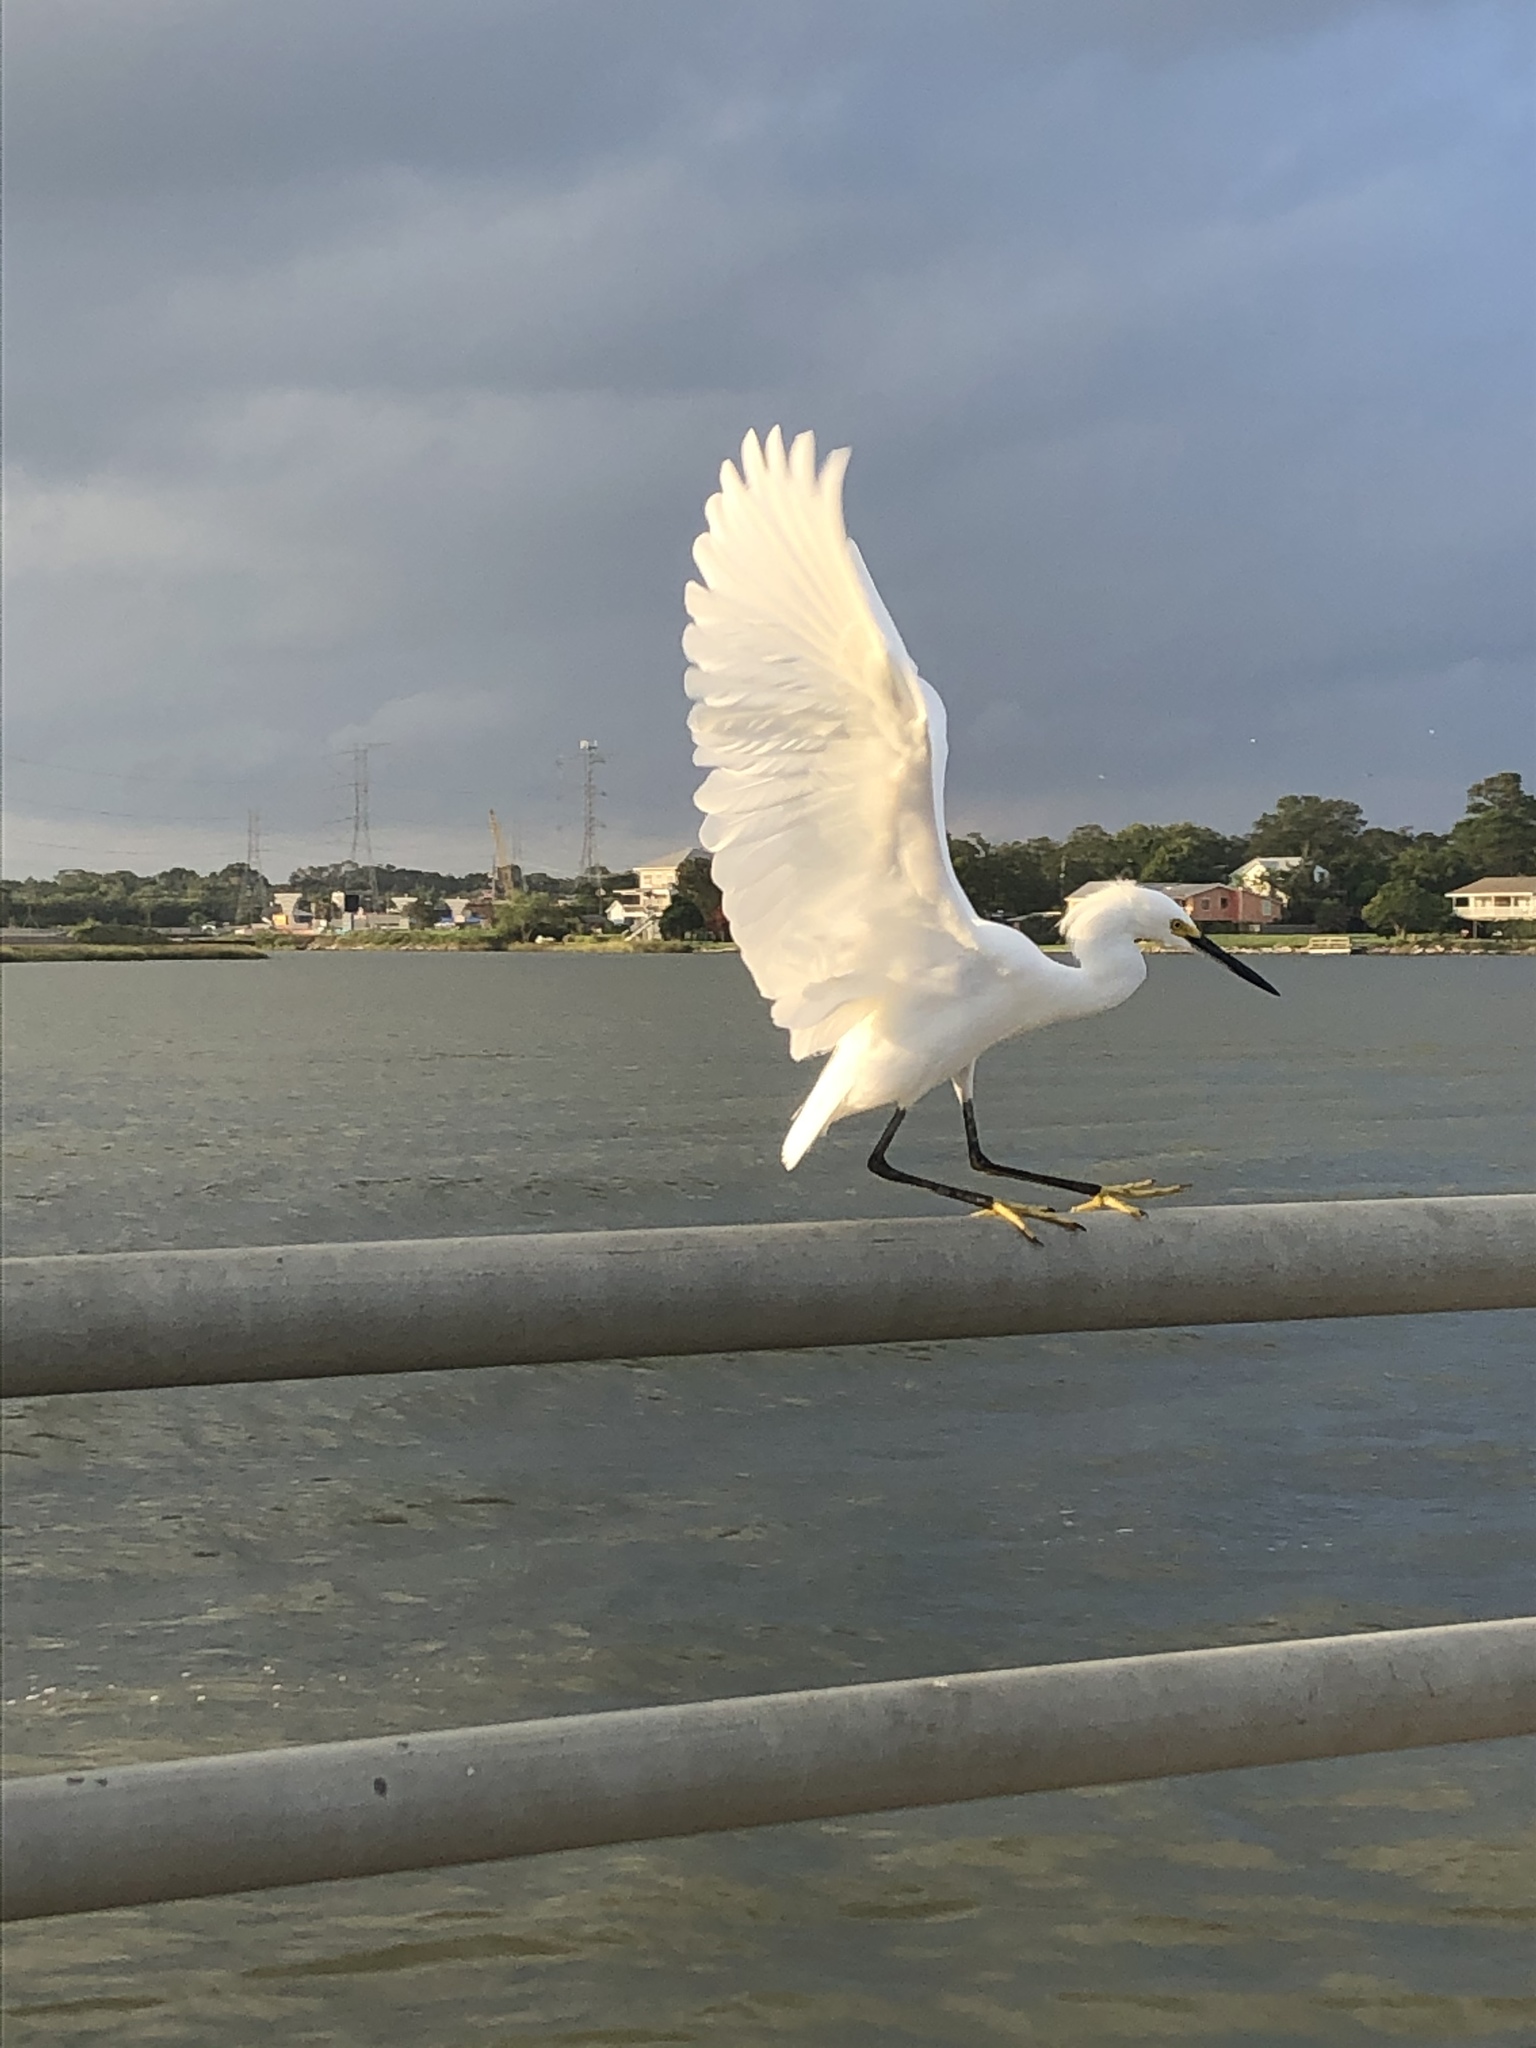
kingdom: Animalia
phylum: Chordata
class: Aves
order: Pelecaniformes
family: Ardeidae
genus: Egretta
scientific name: Egretta thula
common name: Snowy egret
